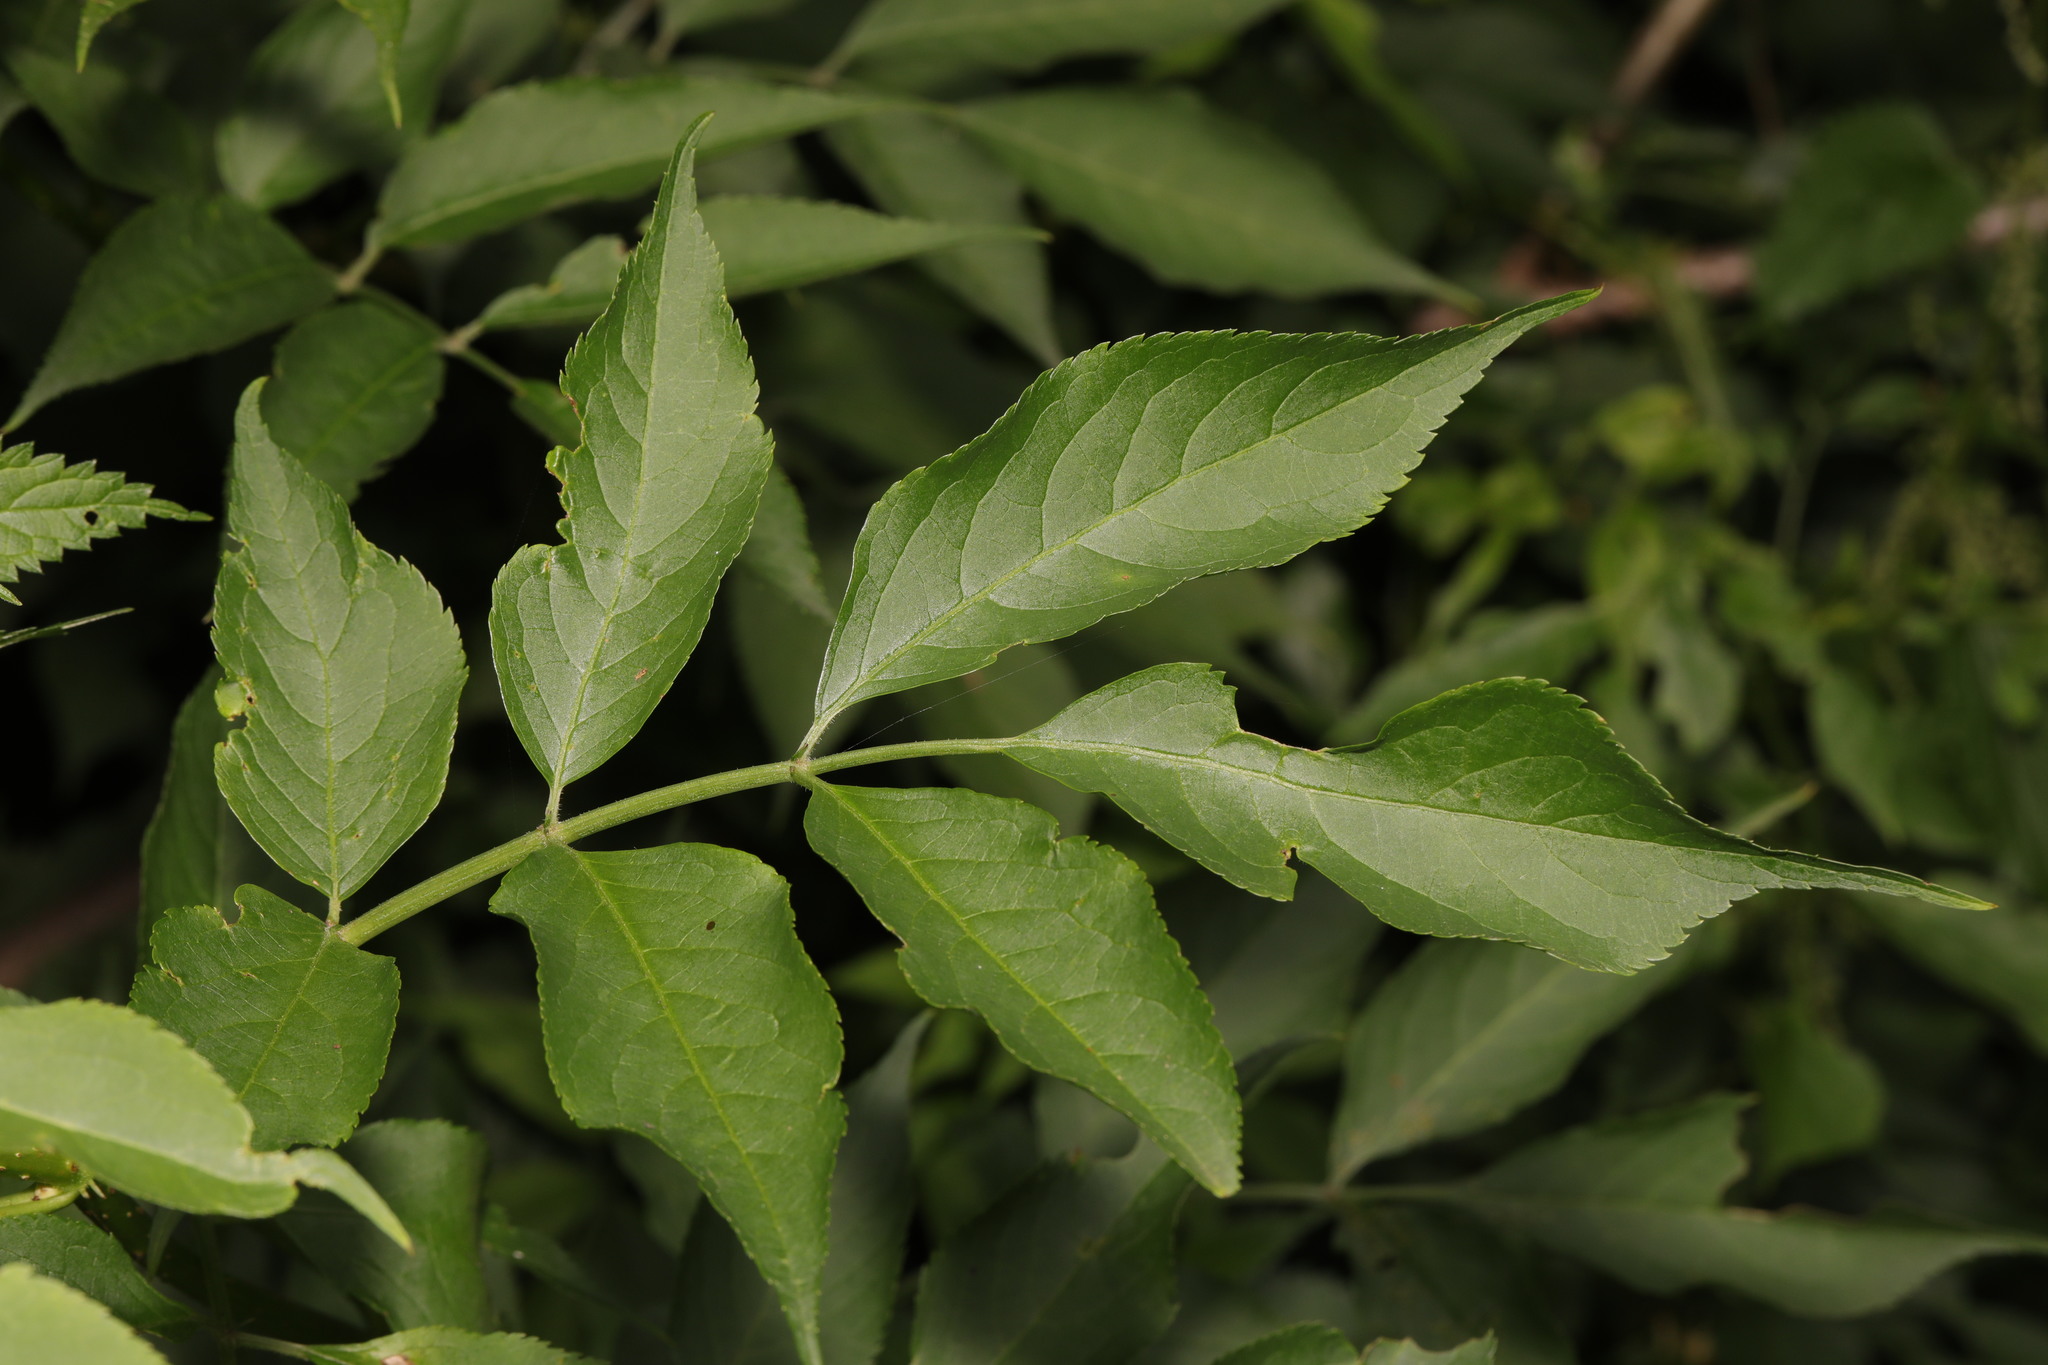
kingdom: Plantae
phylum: Tracheophyta
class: Magnoliopsida
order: Dipsacales
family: Viburnaceae
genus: Sambucus
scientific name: Sambucus nigra
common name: Elder
